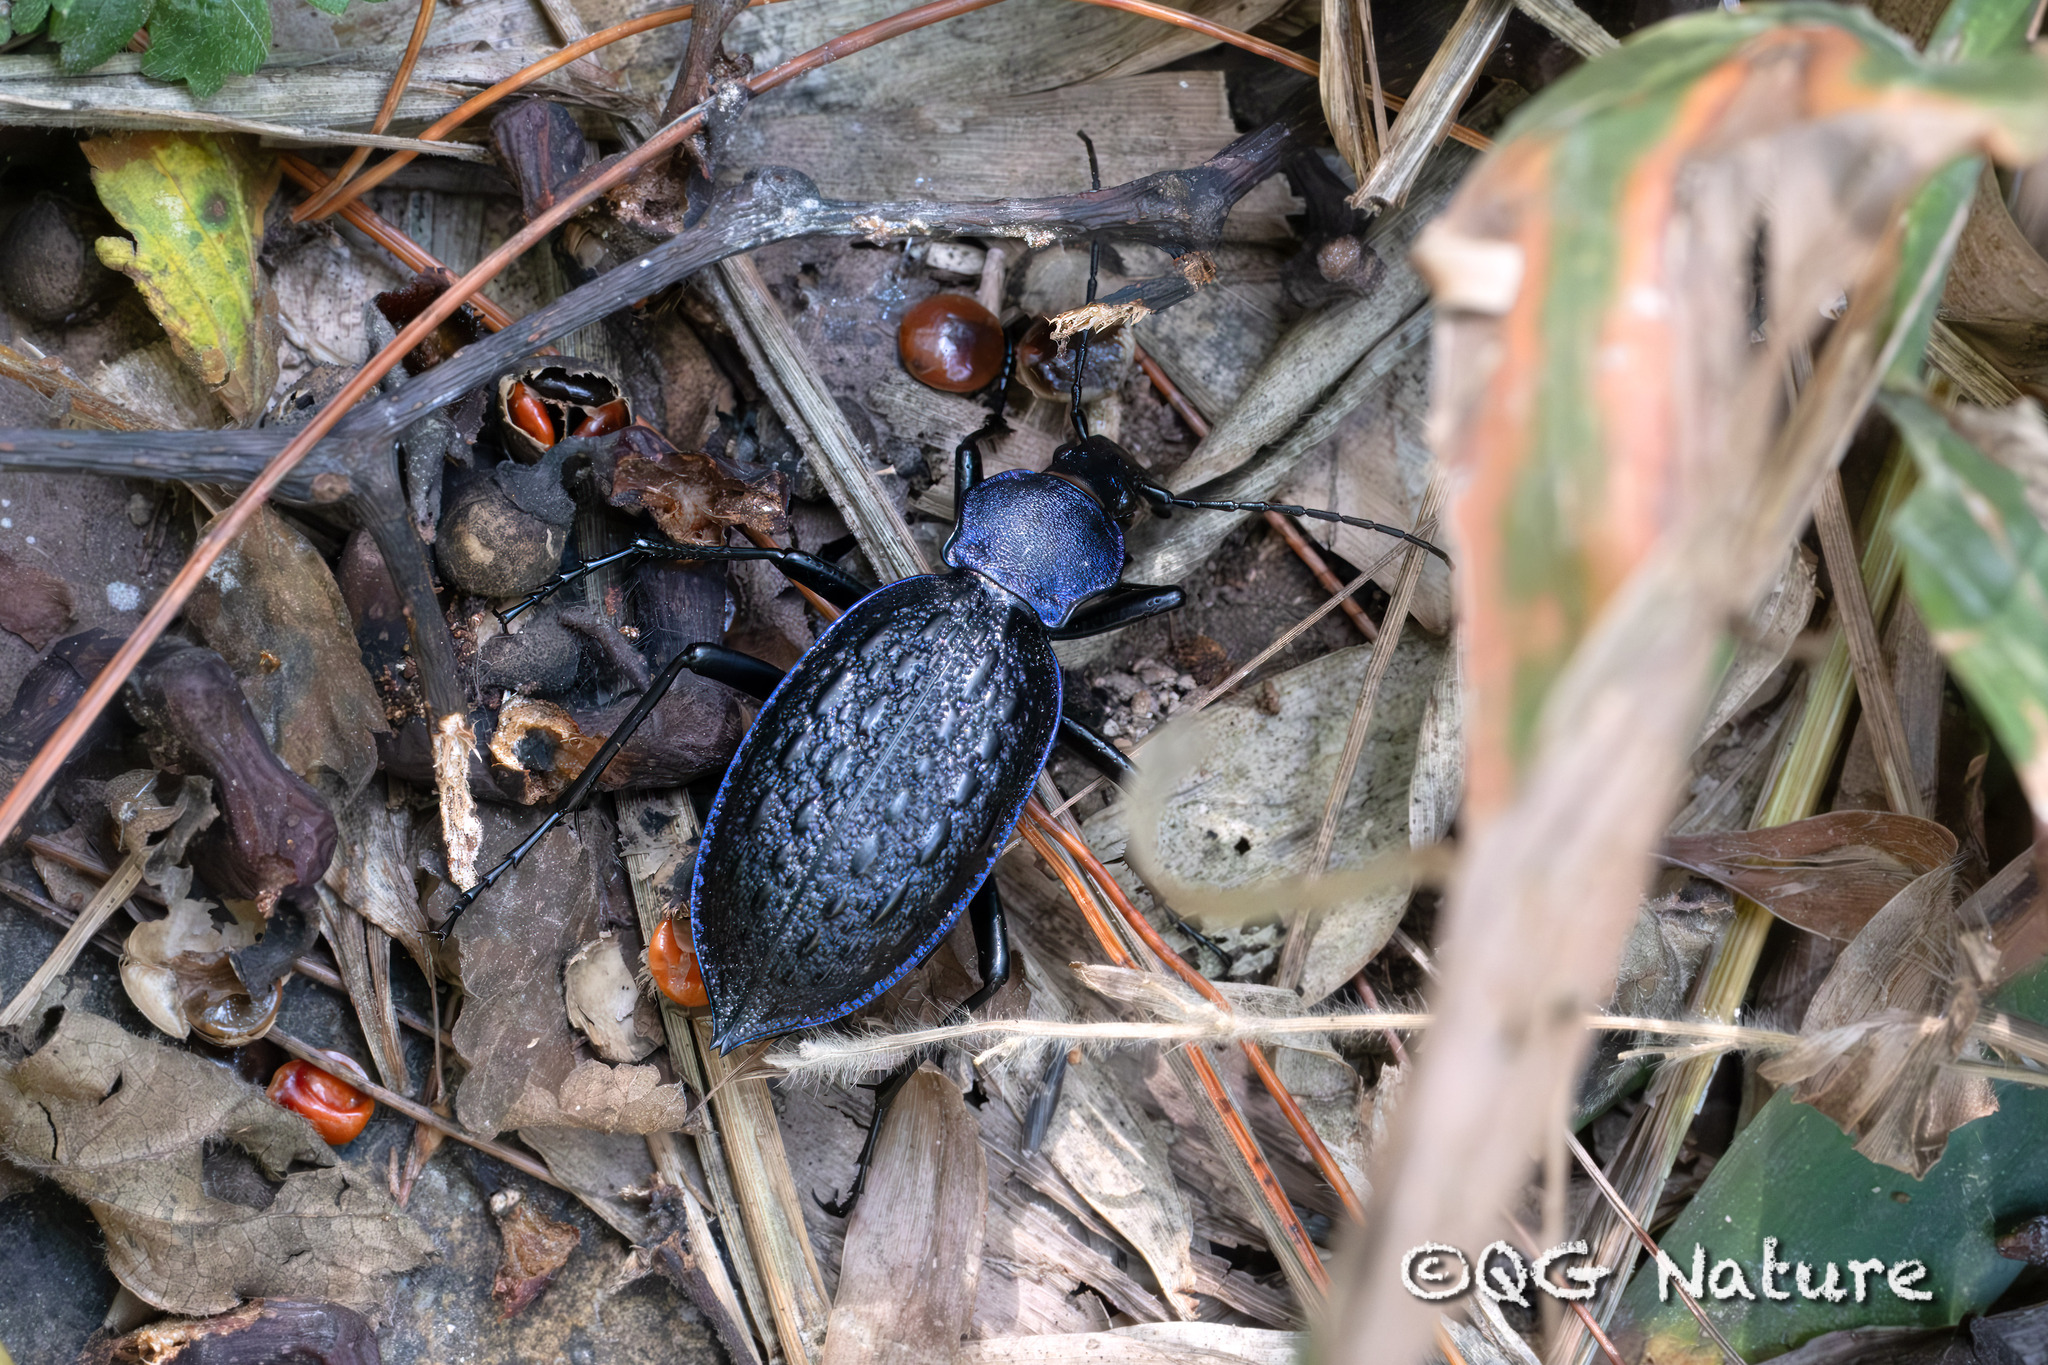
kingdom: Animalia
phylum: Arthropoda
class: Insecta
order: Coleoptera
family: Carabidae
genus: Carabus
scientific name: Carabus lafossei
